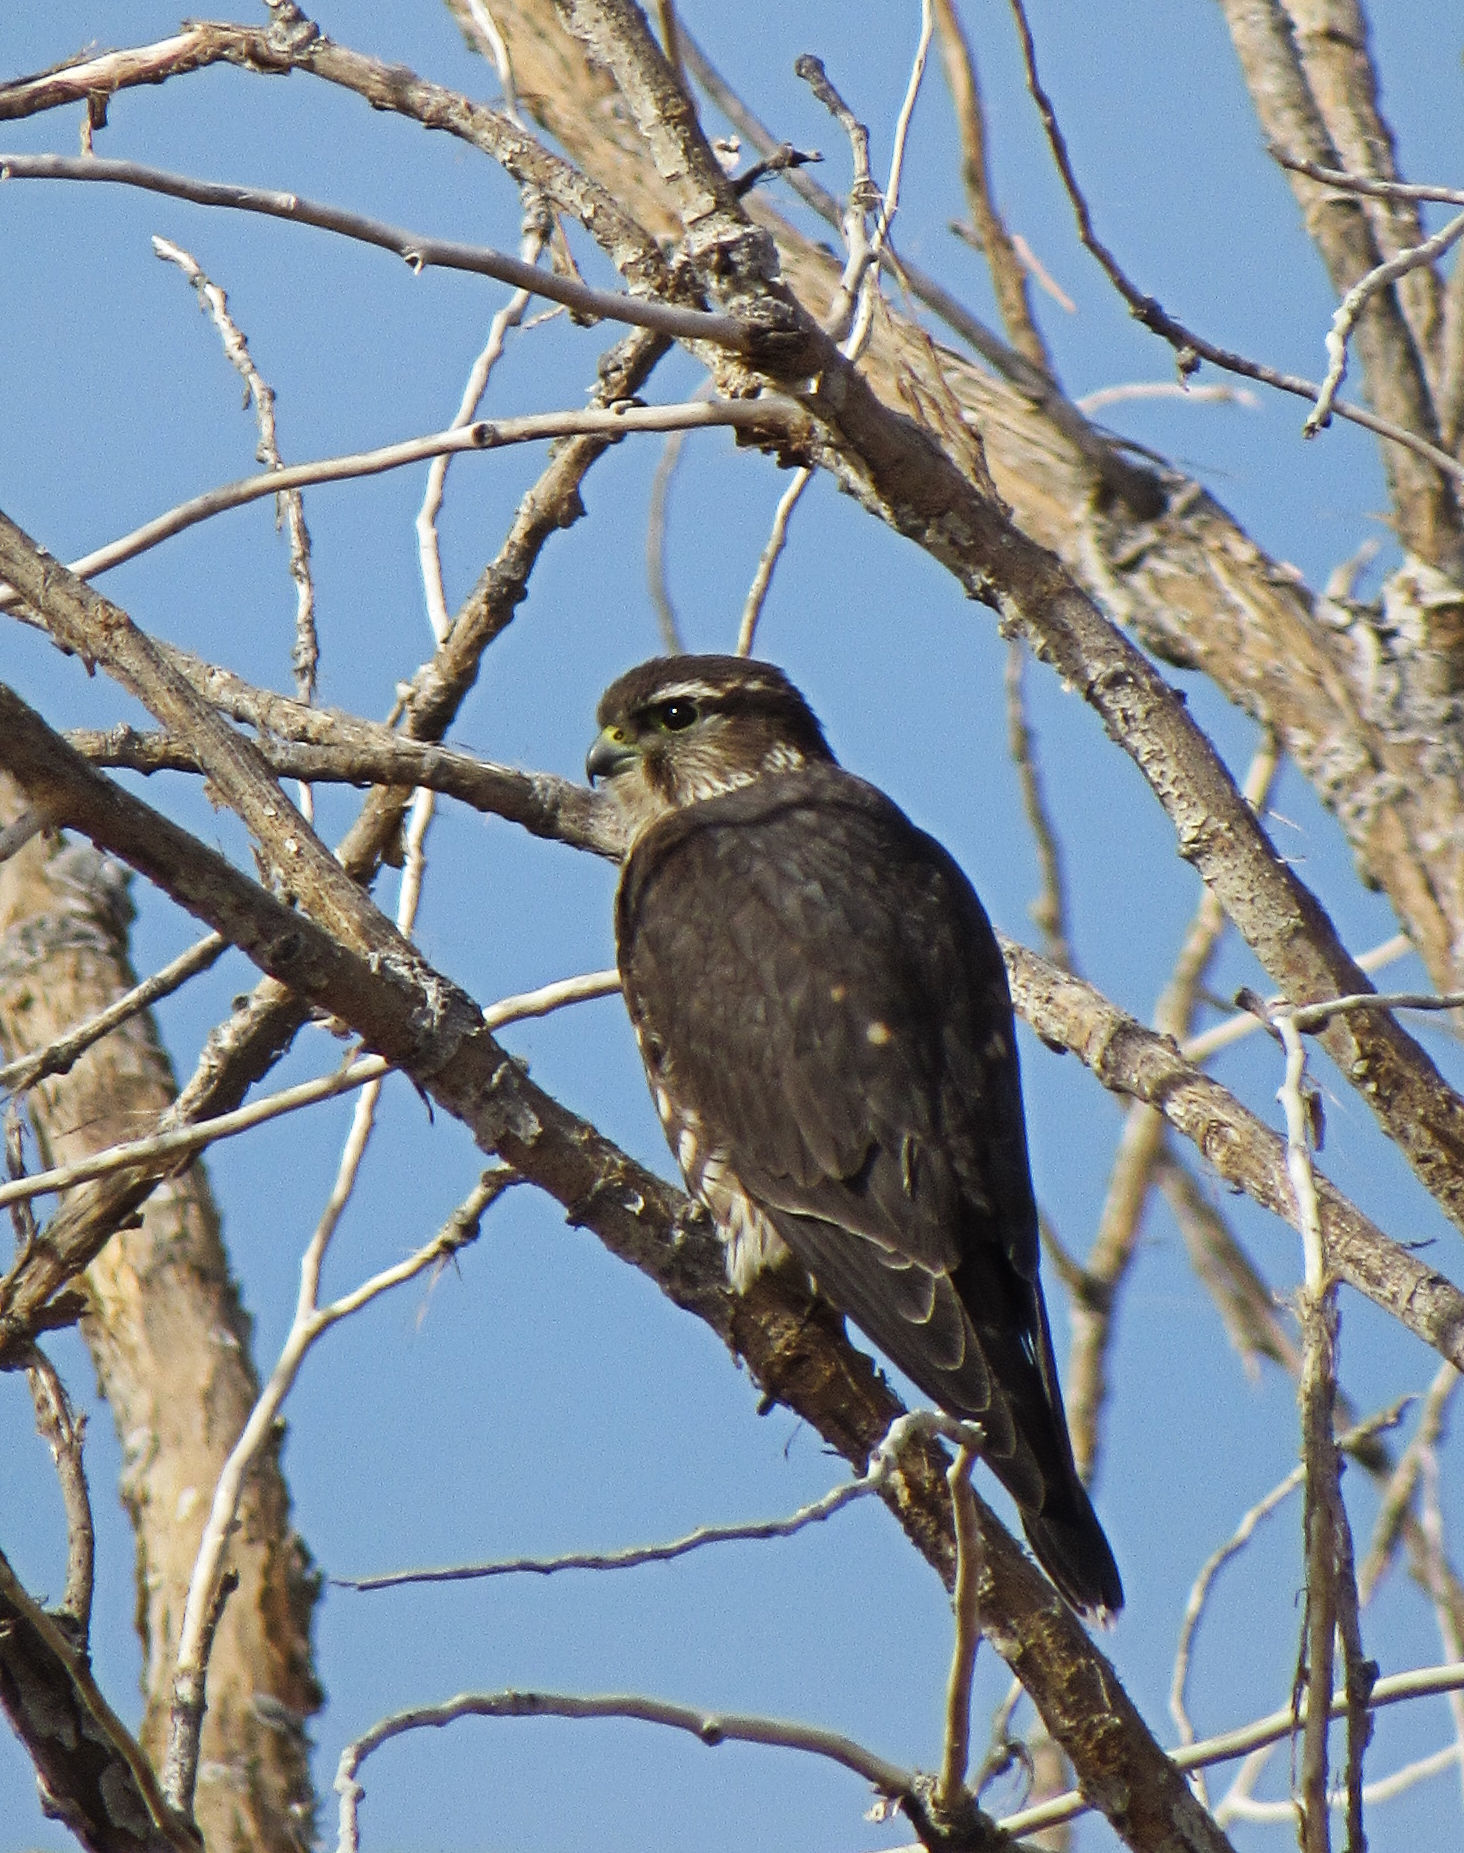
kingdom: Animalia
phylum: Chordata
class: Aves
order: Falconiformes
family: Falconidae
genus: Falco
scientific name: Falco columbarius
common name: Merlin
